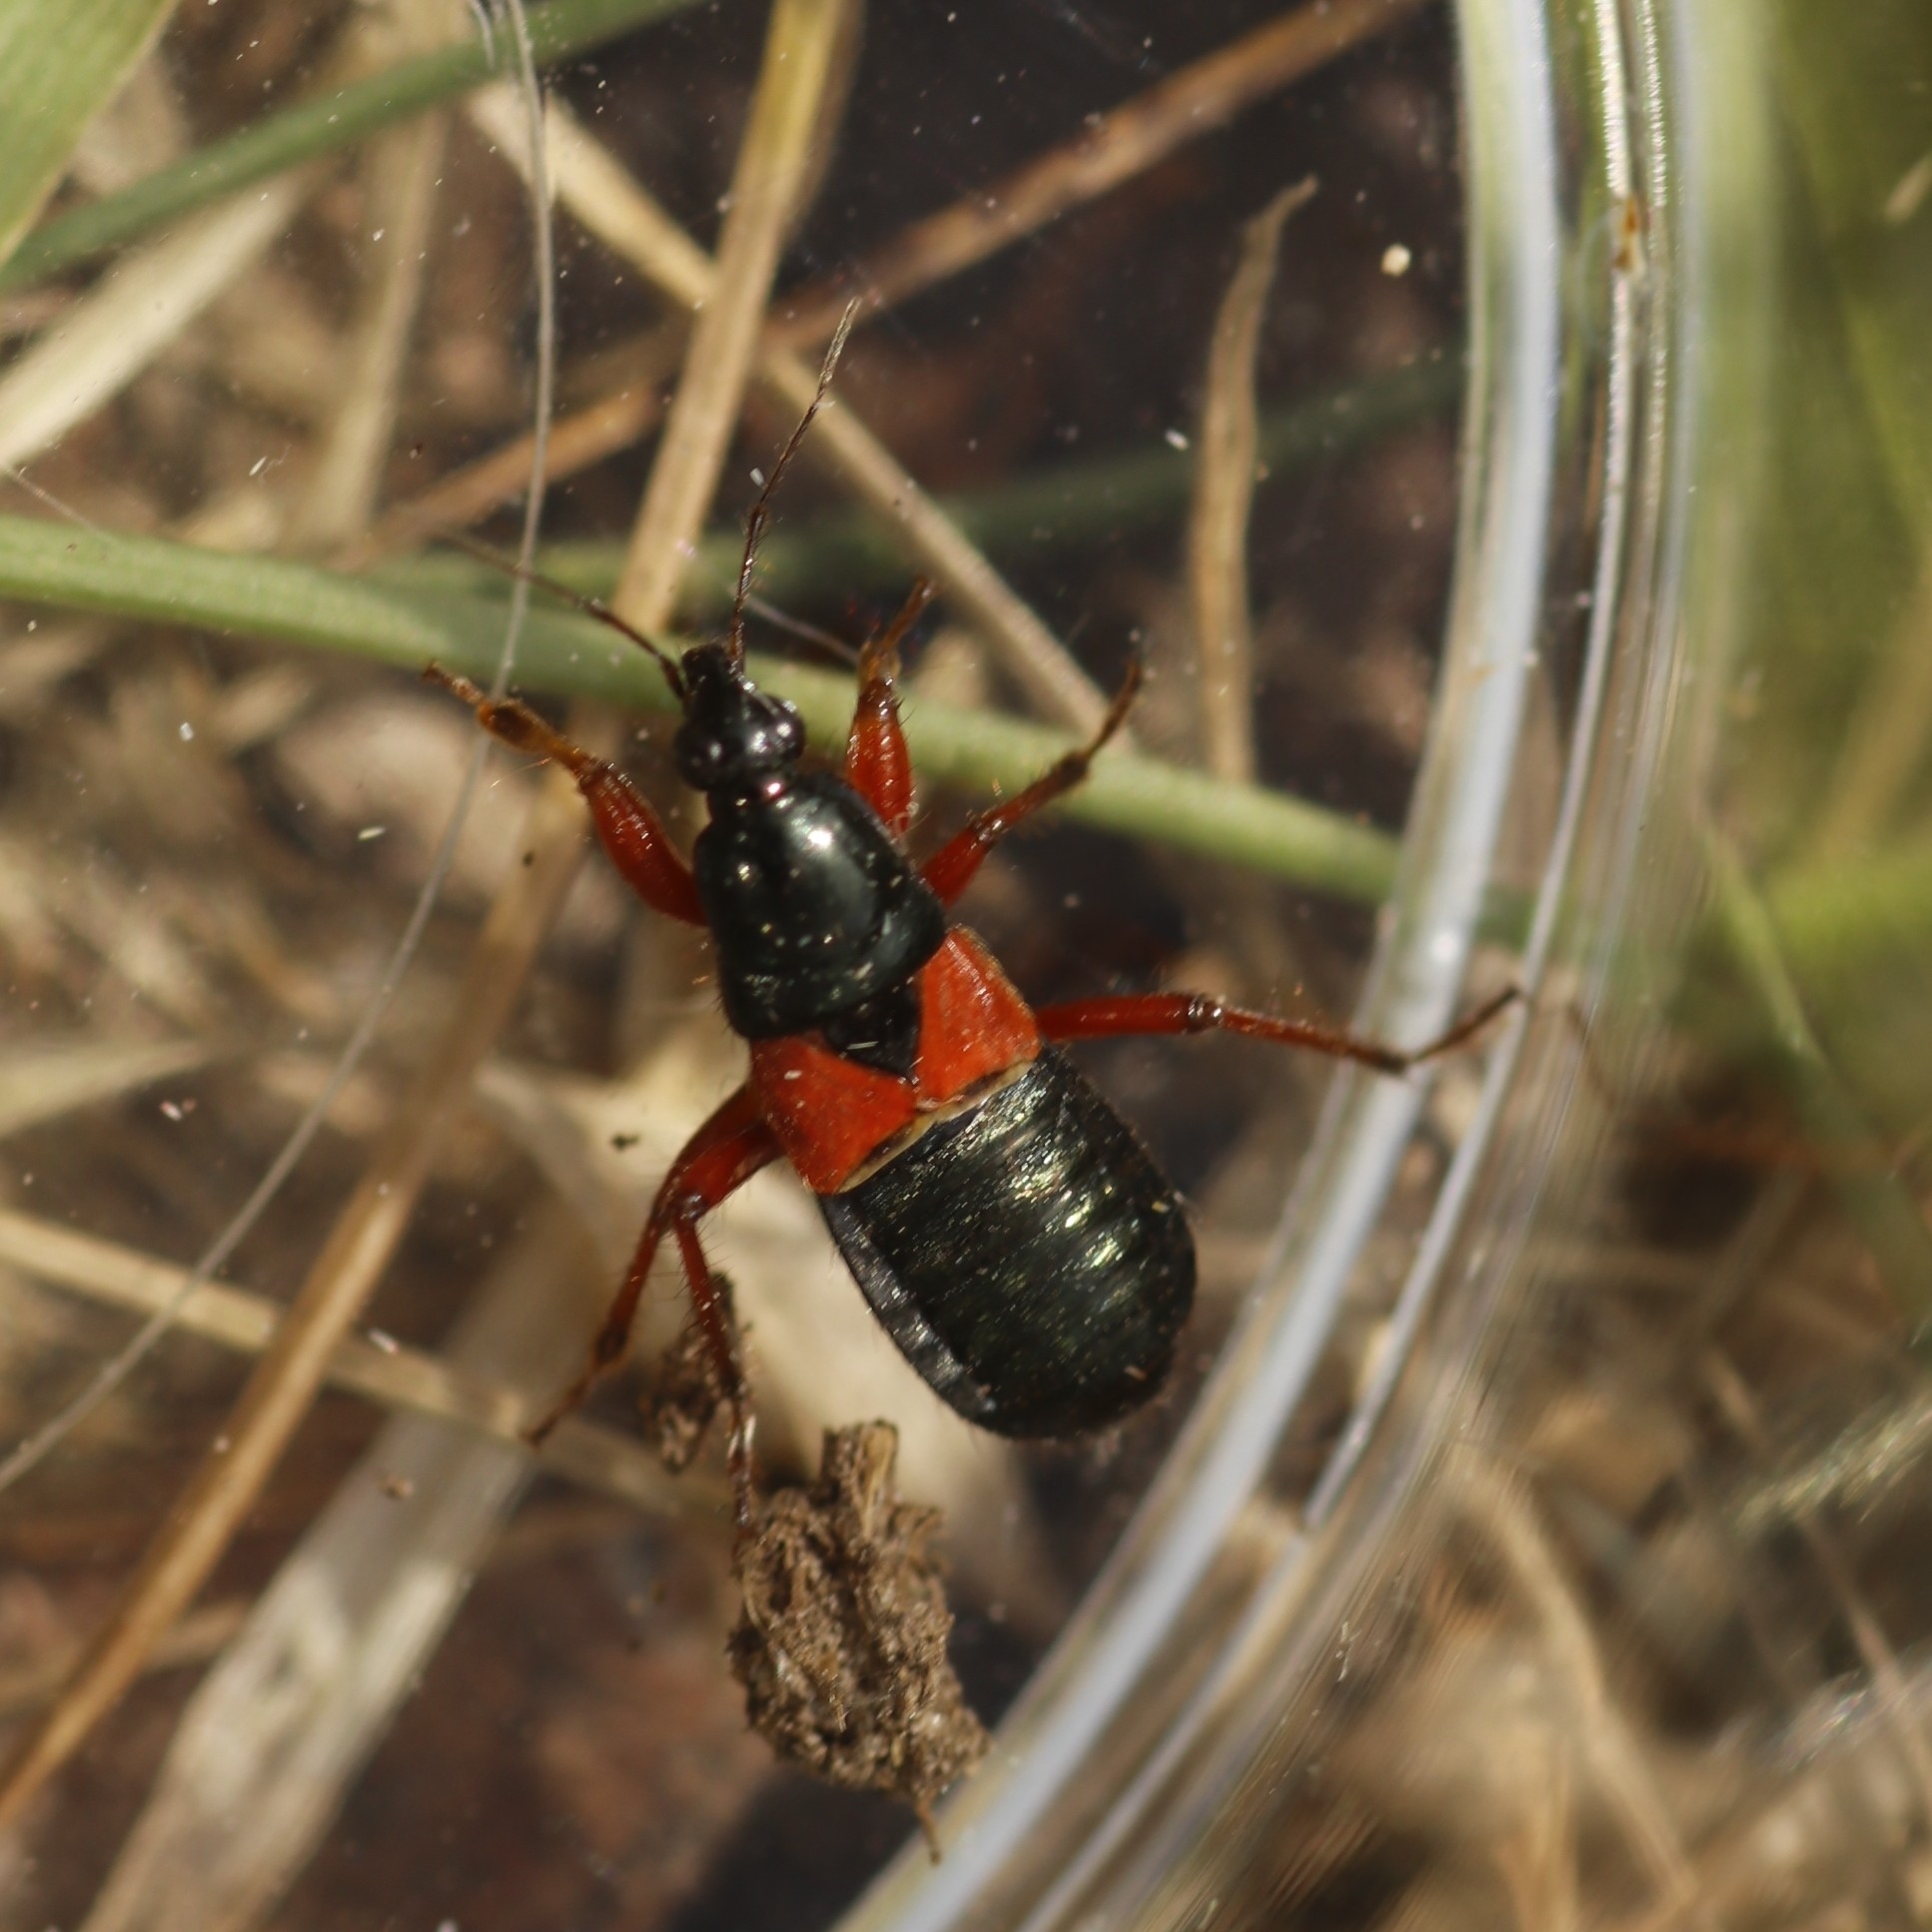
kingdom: Animalia
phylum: Arthropoda
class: Insecta
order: Hemiptera
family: Nabidae
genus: Prostemma
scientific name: Prostemma guttula
